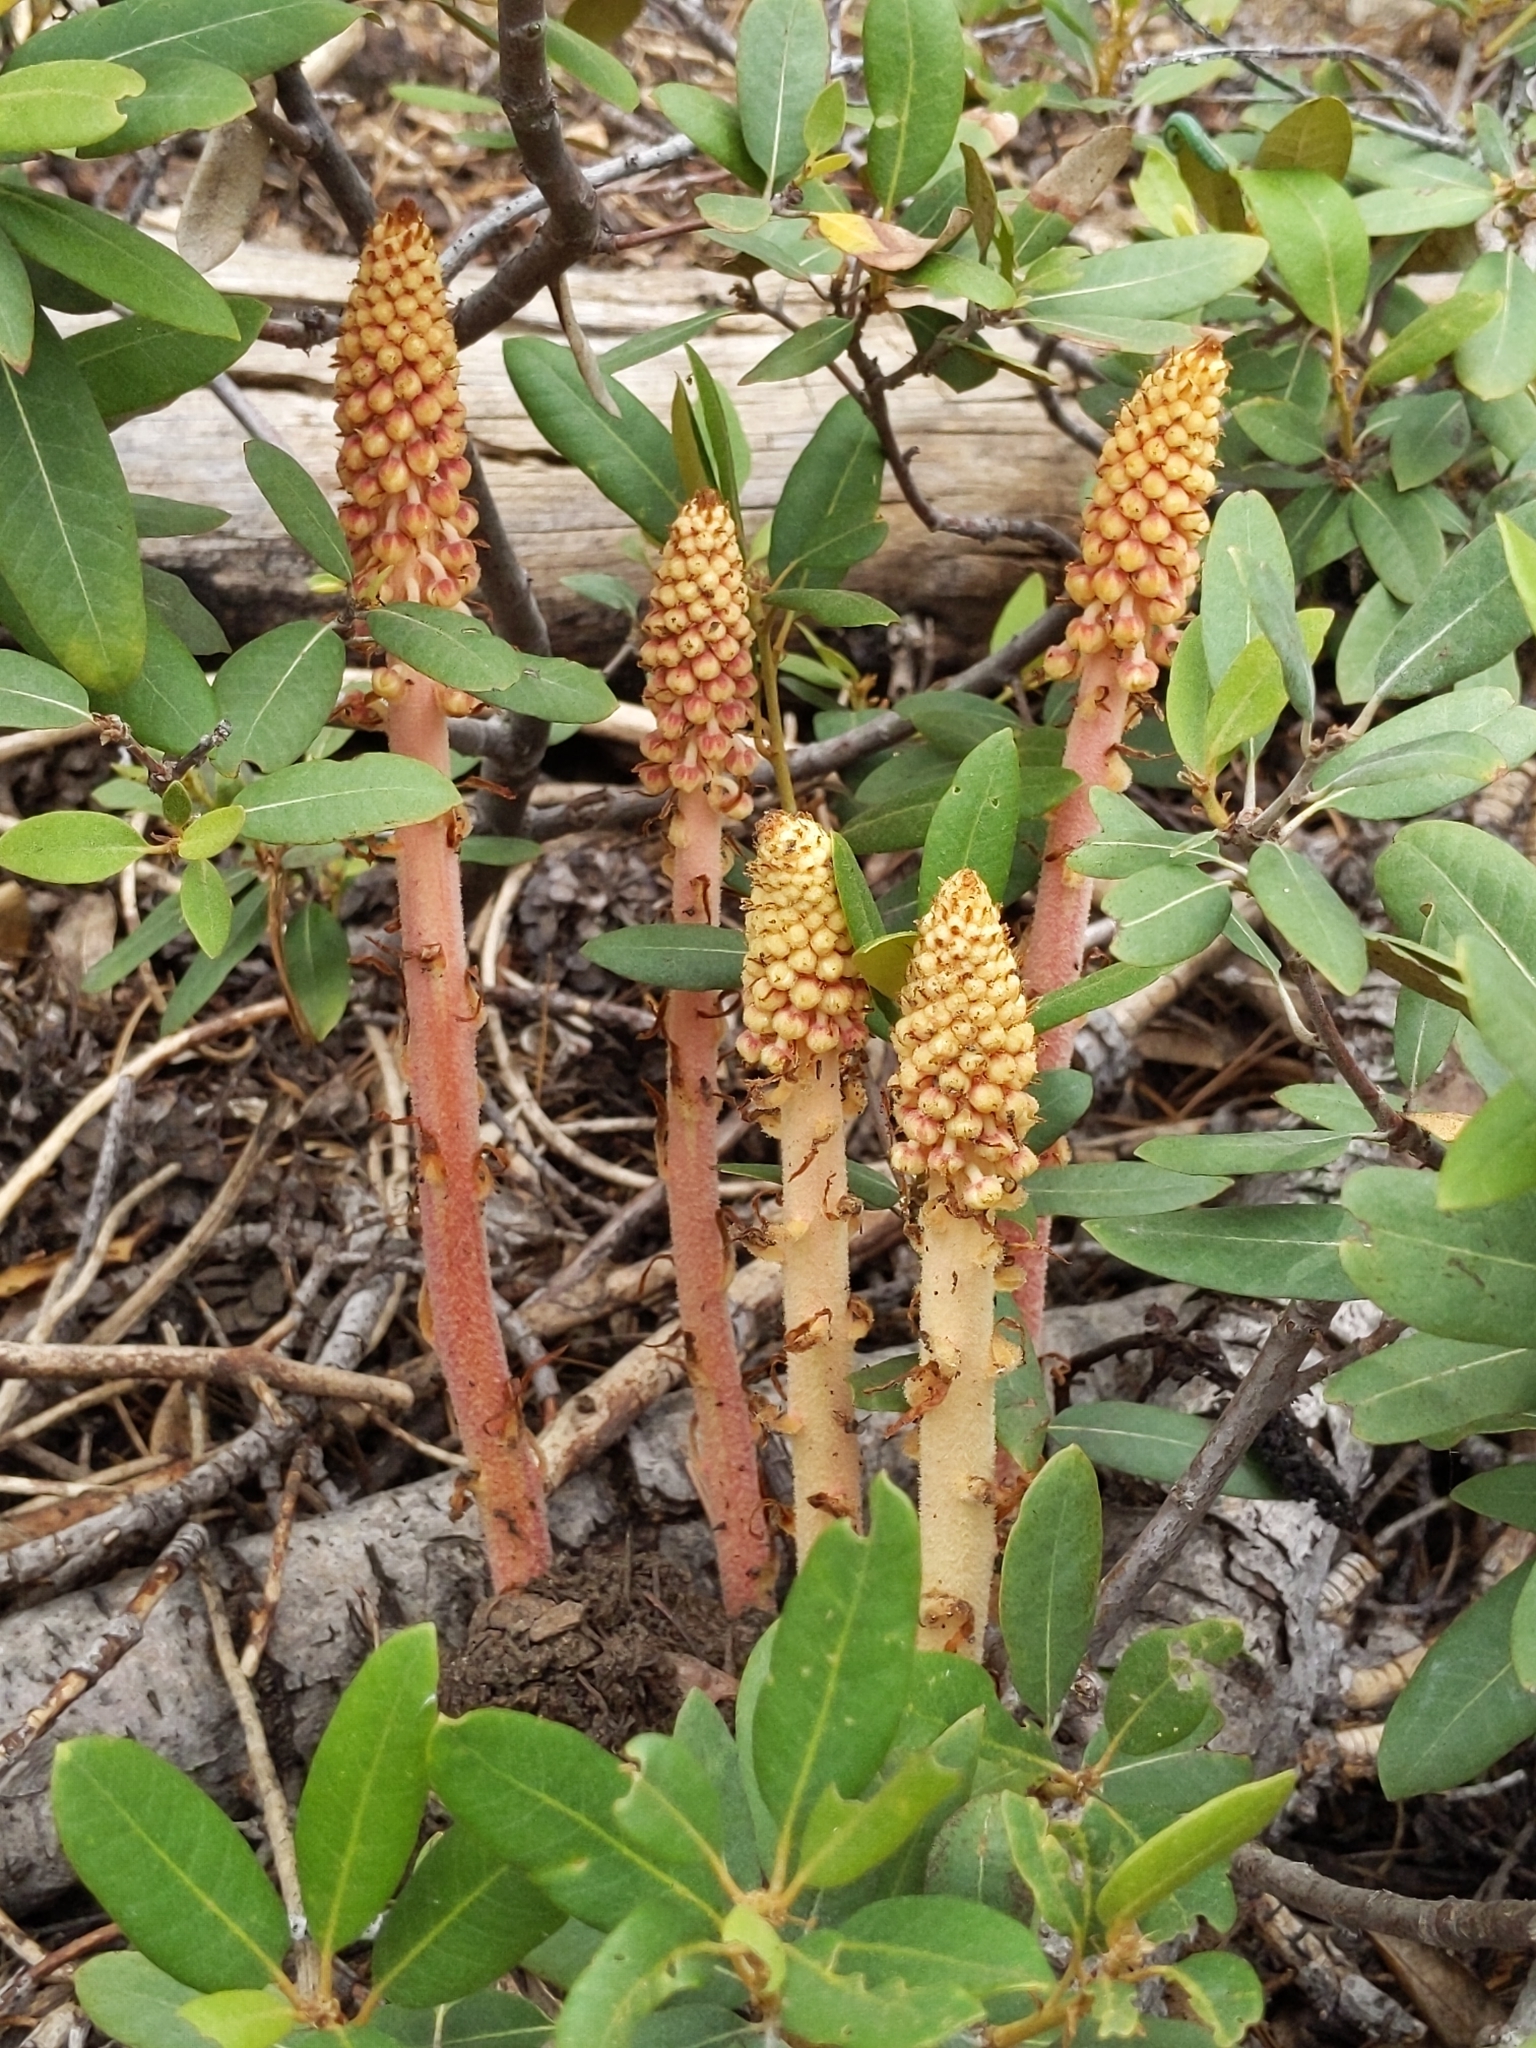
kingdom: Plantae
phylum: Tracheophyta
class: Magnoliopsida
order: Ericales
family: Ericaceae
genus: Pterospora
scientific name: Pterospora andromedea
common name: Giant bird's-nest
